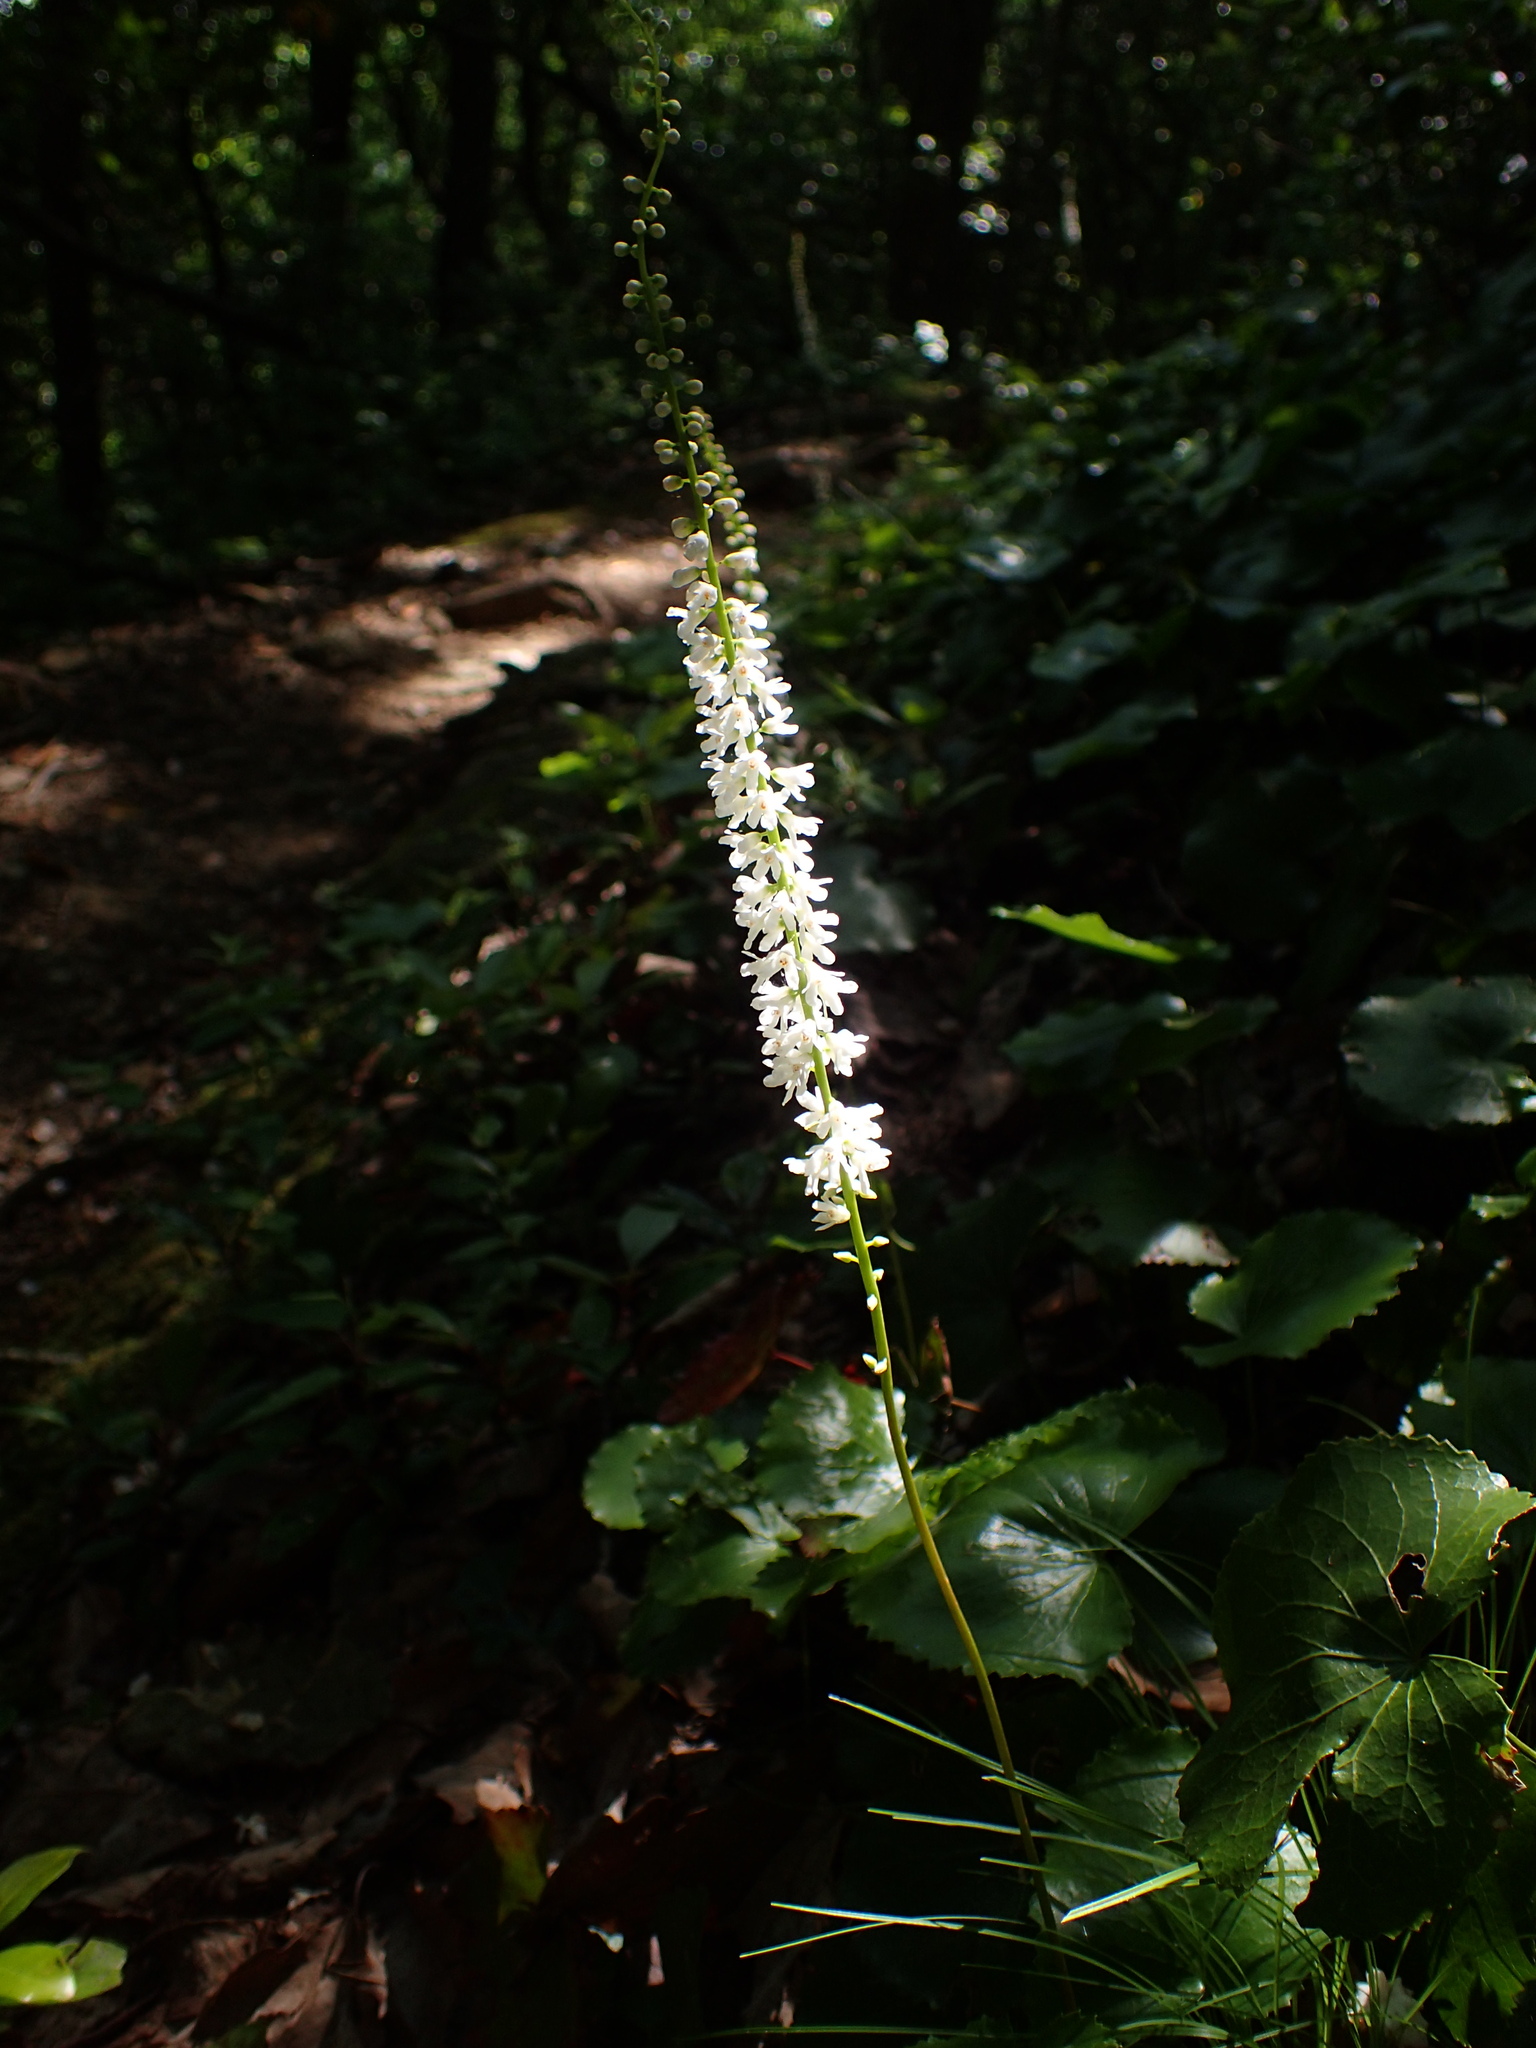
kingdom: Plantae
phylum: Tracheophyta
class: Magnoliopsida
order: Ericales
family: Diapensiaceae
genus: Galax
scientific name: Galax urceolata
